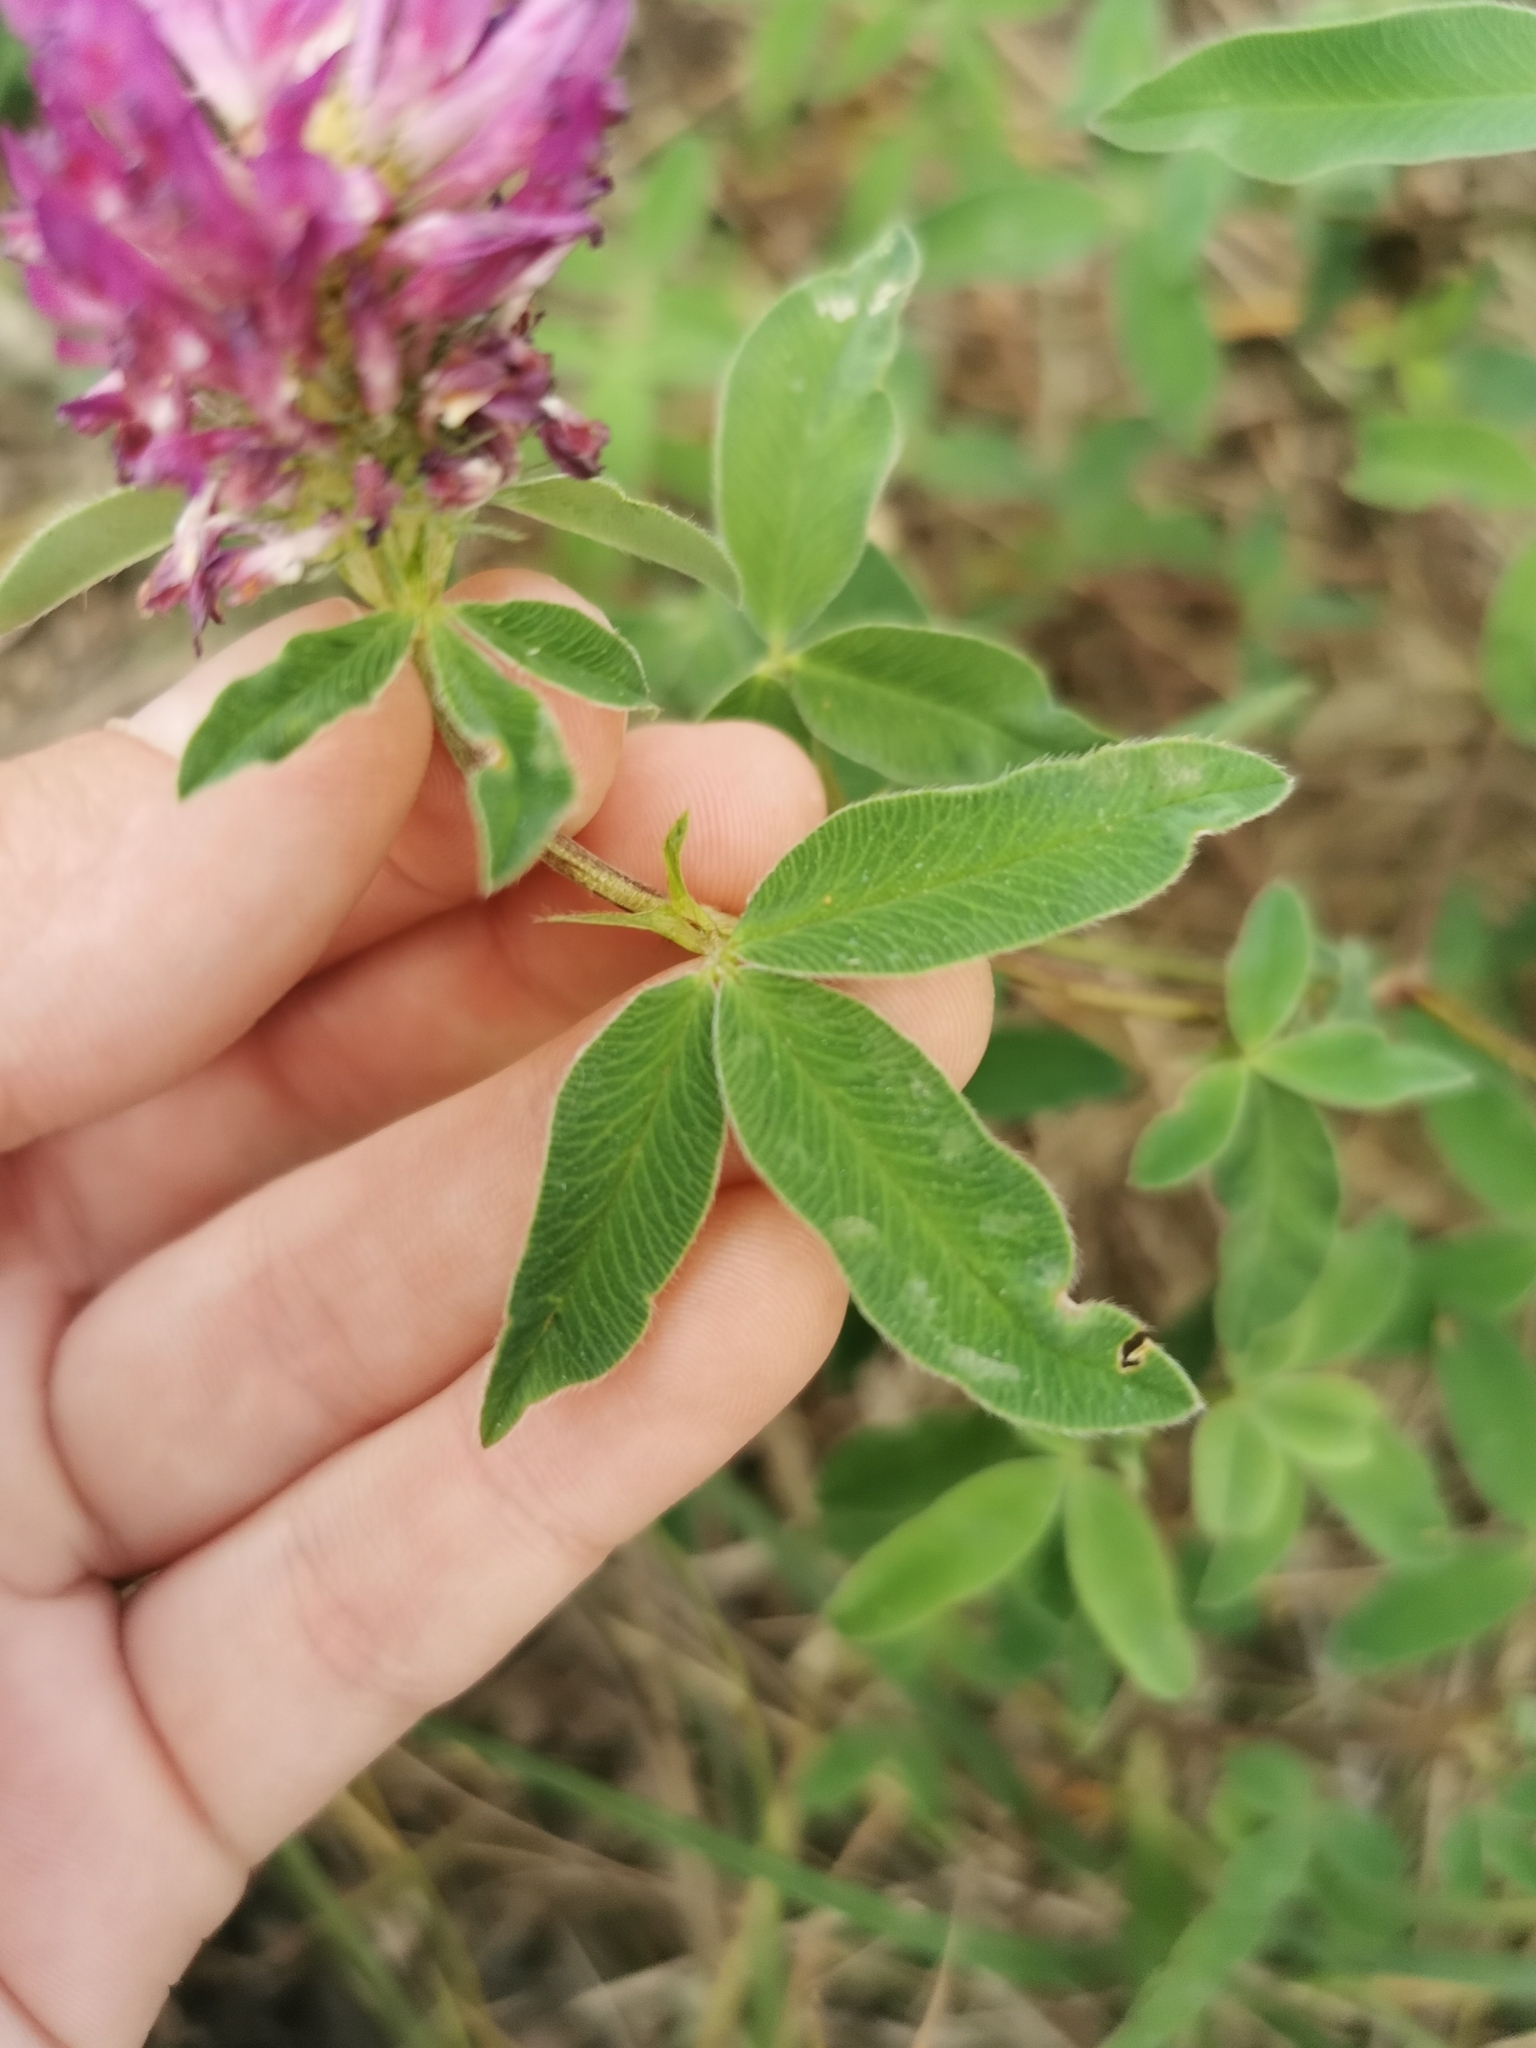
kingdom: Plantae
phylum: Tracheophyta
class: Magnoliopsida
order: Fabales
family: Fabaceae
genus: Trifolium
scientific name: Trifolium medium
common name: Zigzag clover
